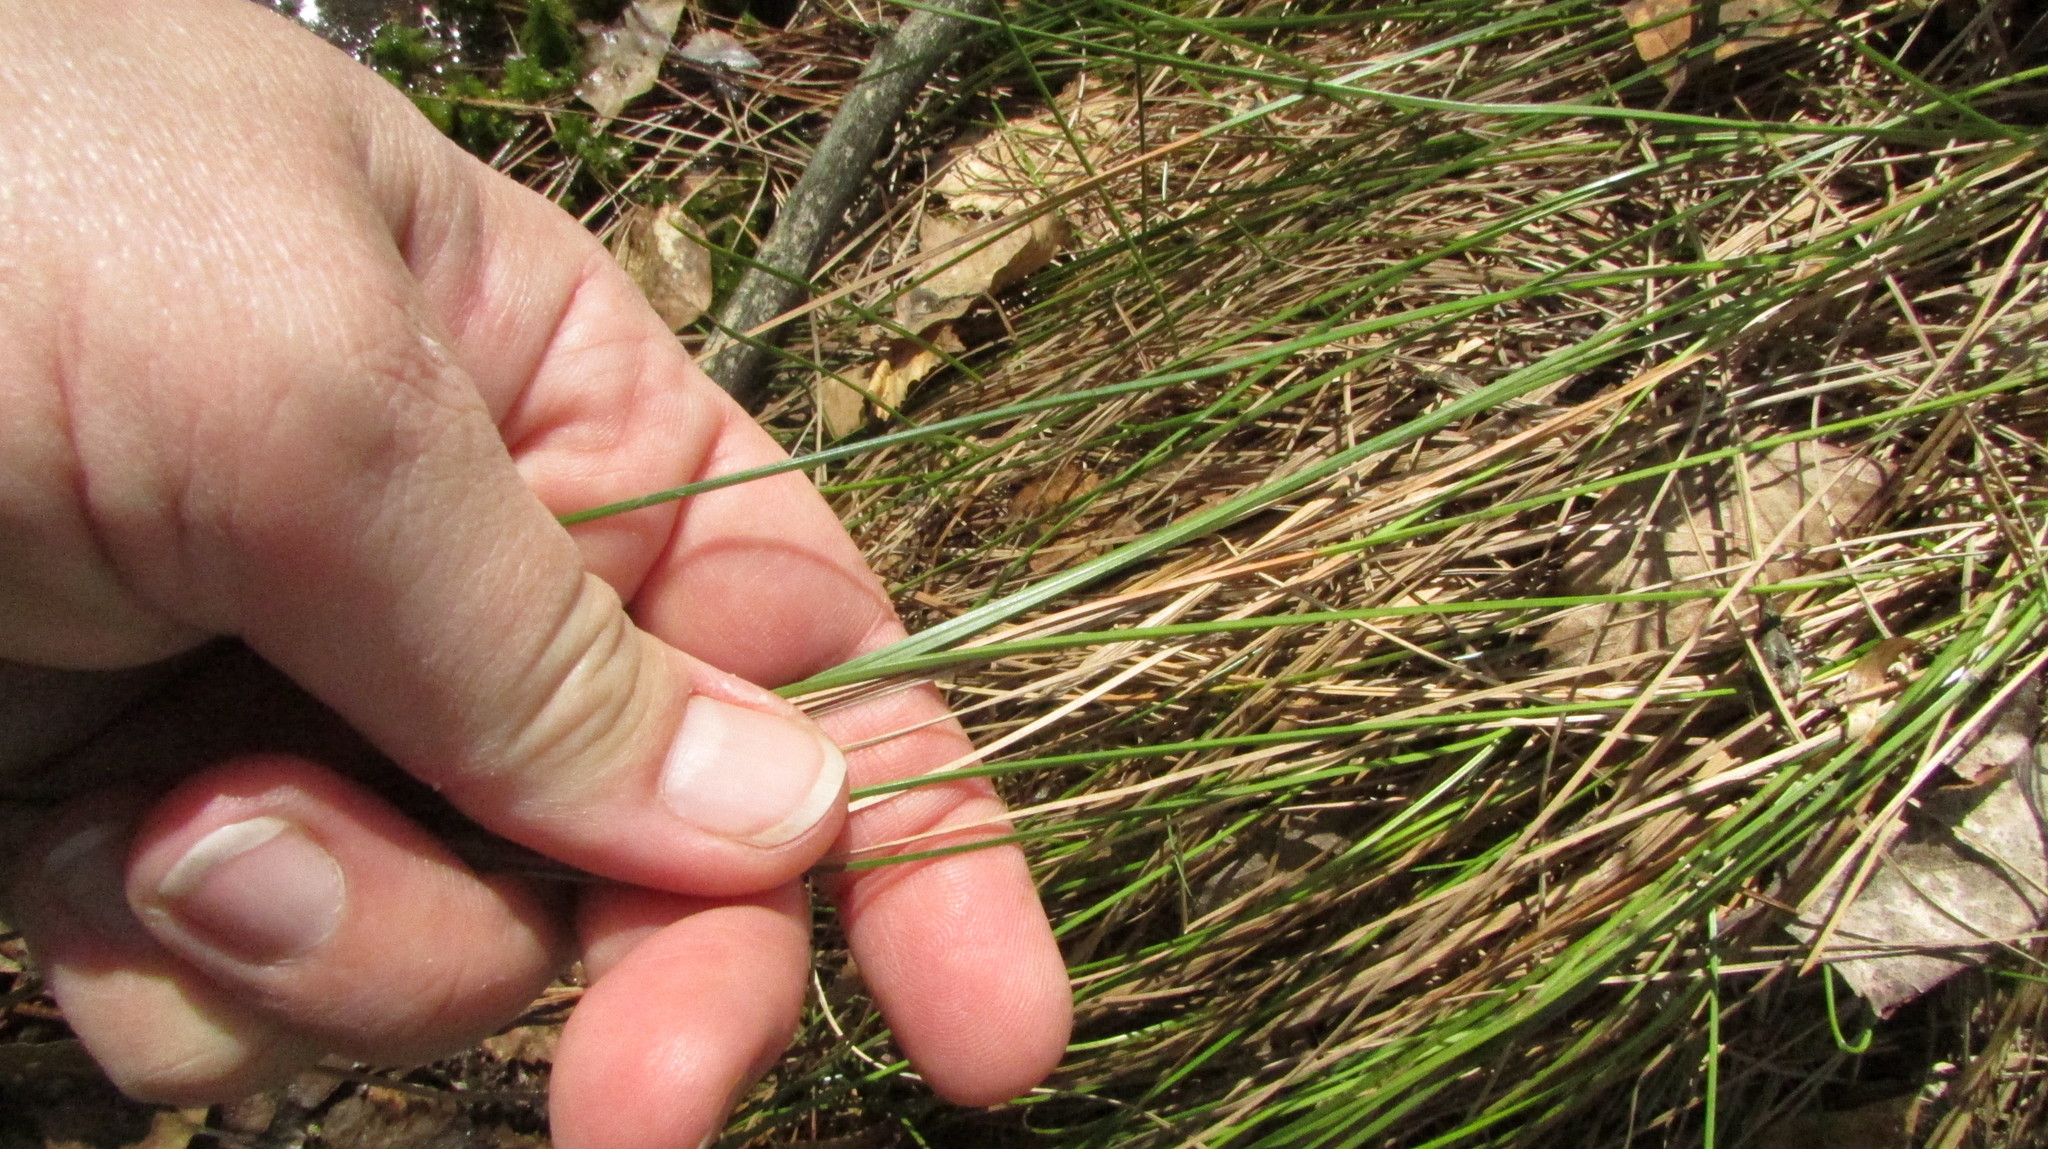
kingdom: Plantae
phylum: Tracheophyta
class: Liliopsida
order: Poales
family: Cyperaceae
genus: Eriophorum
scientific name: Eriophorum vaginatum
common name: Hare's-tail cottongrass
